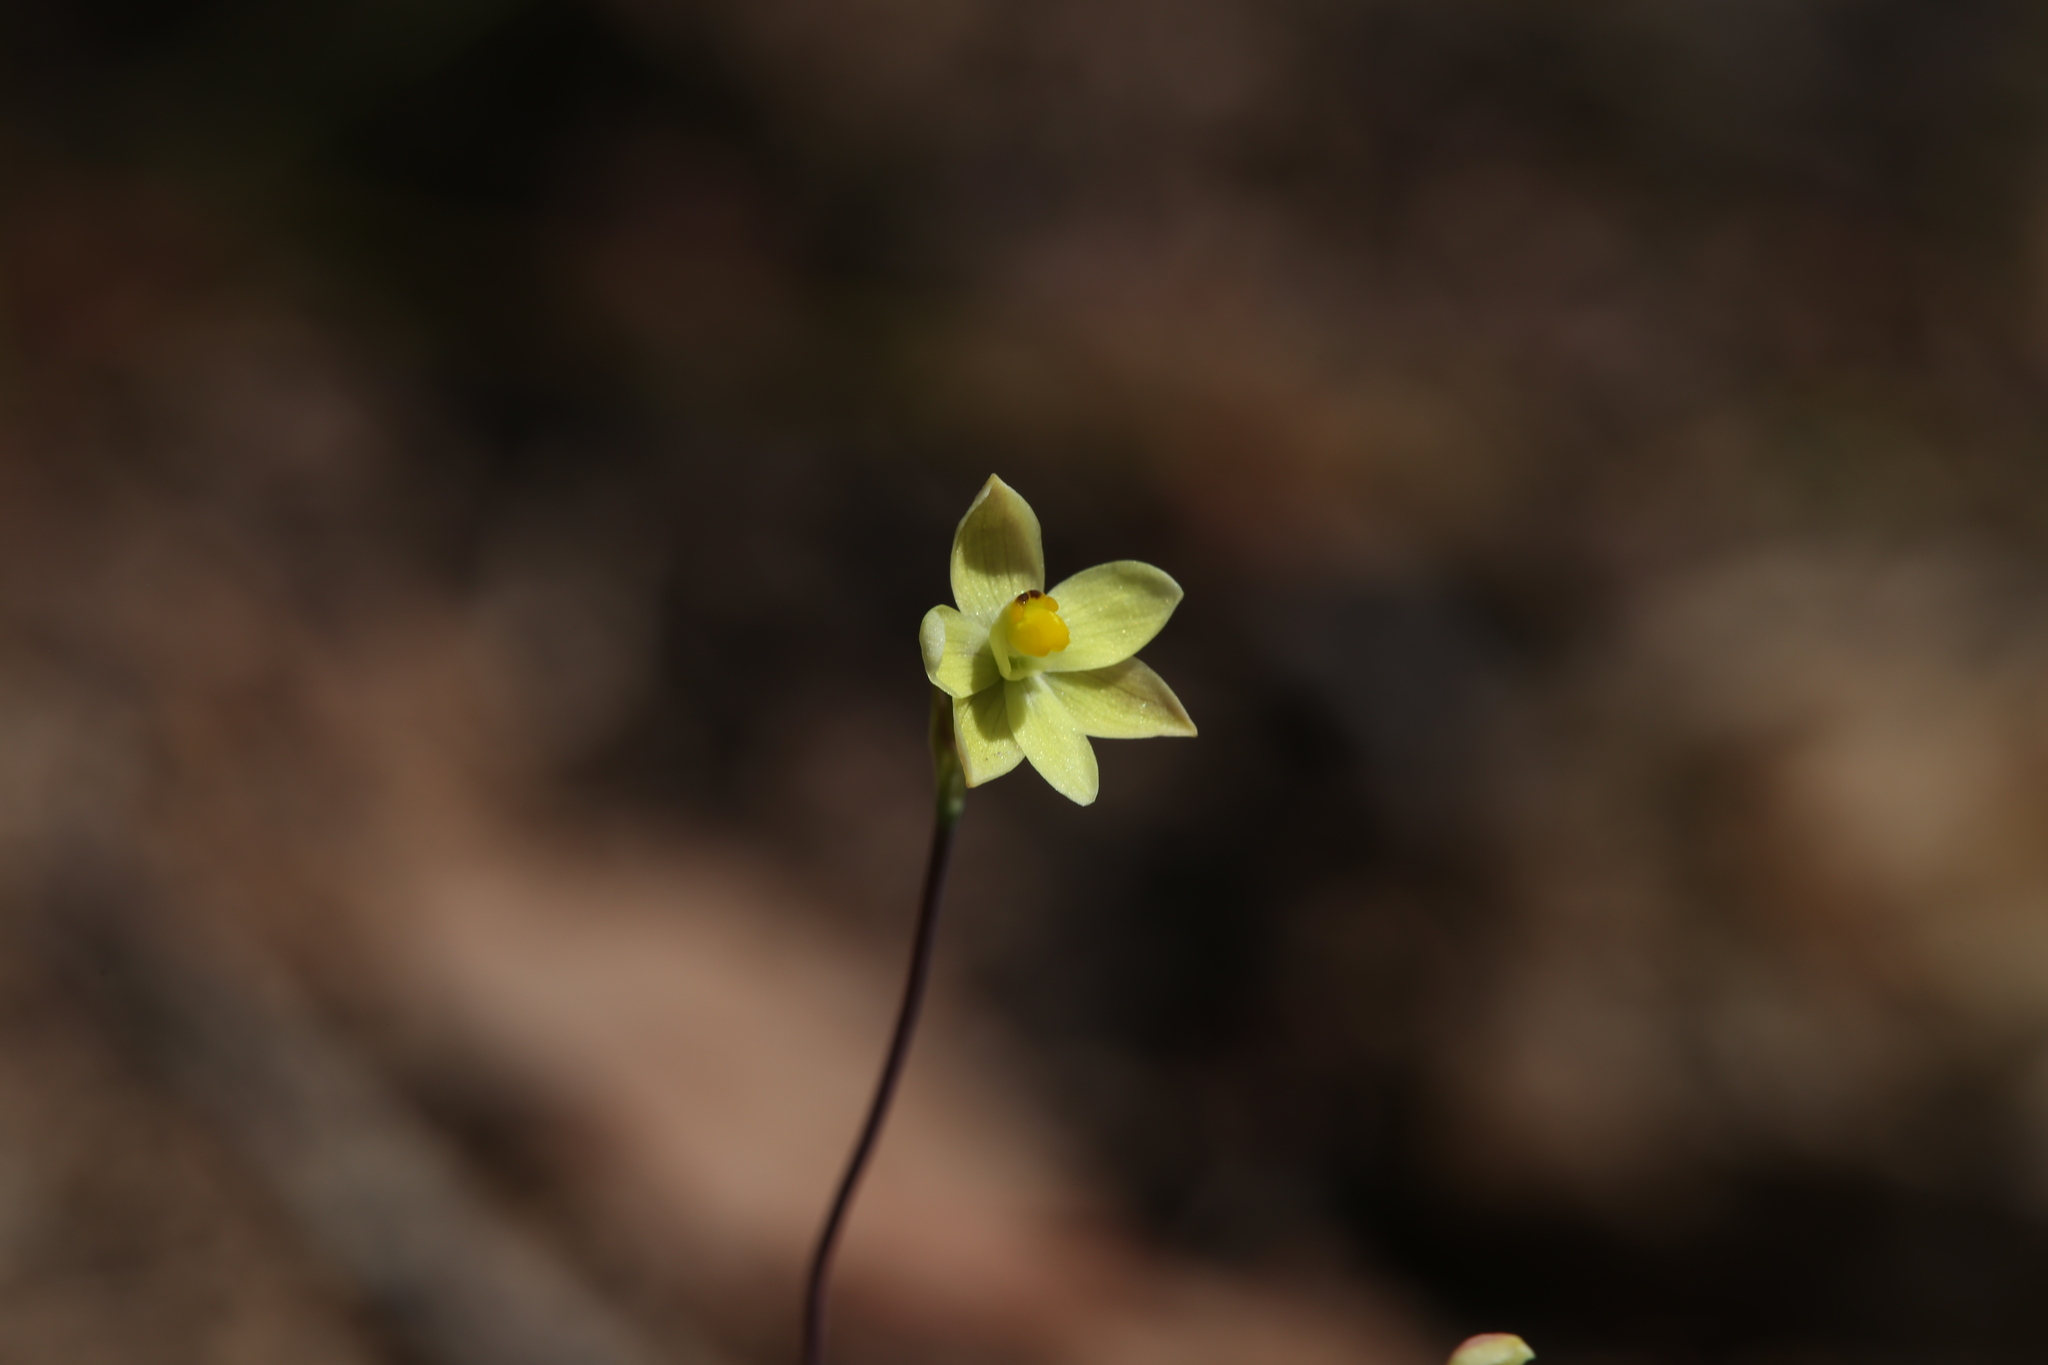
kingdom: Plantae
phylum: Tracheophyta
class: Liliopsida
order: Asparagales
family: Orchidaceae
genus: Thelymitra
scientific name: Thelymitra flexuosa
